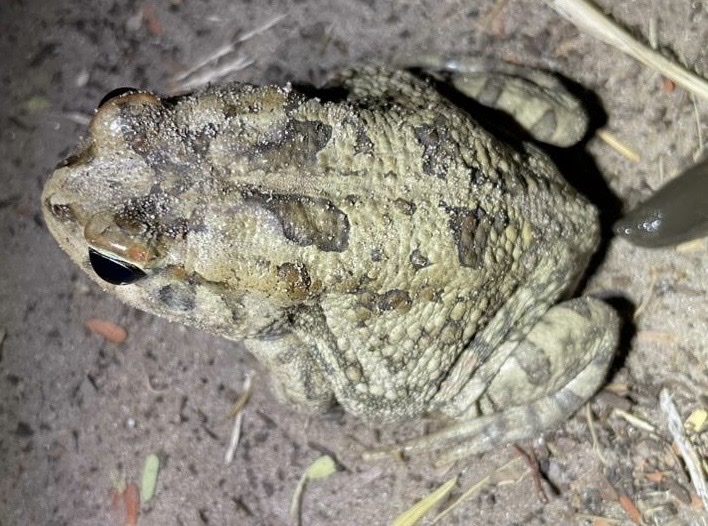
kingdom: Animalia
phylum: Chordata
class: Amphibia
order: Anura
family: Bufonidae
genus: Sclerophrys
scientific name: Sclerophrys poweri
